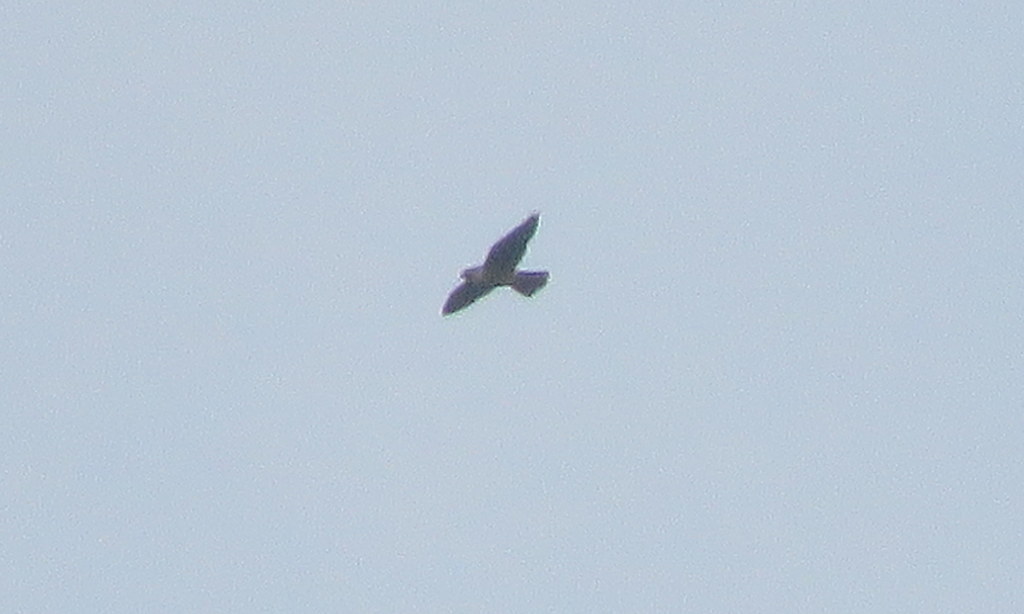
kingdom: Animalia
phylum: Chordata
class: Aves
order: Falconiformes
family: Falconidae
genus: Falco
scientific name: Falco peregrinus
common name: Peregrine falcon
